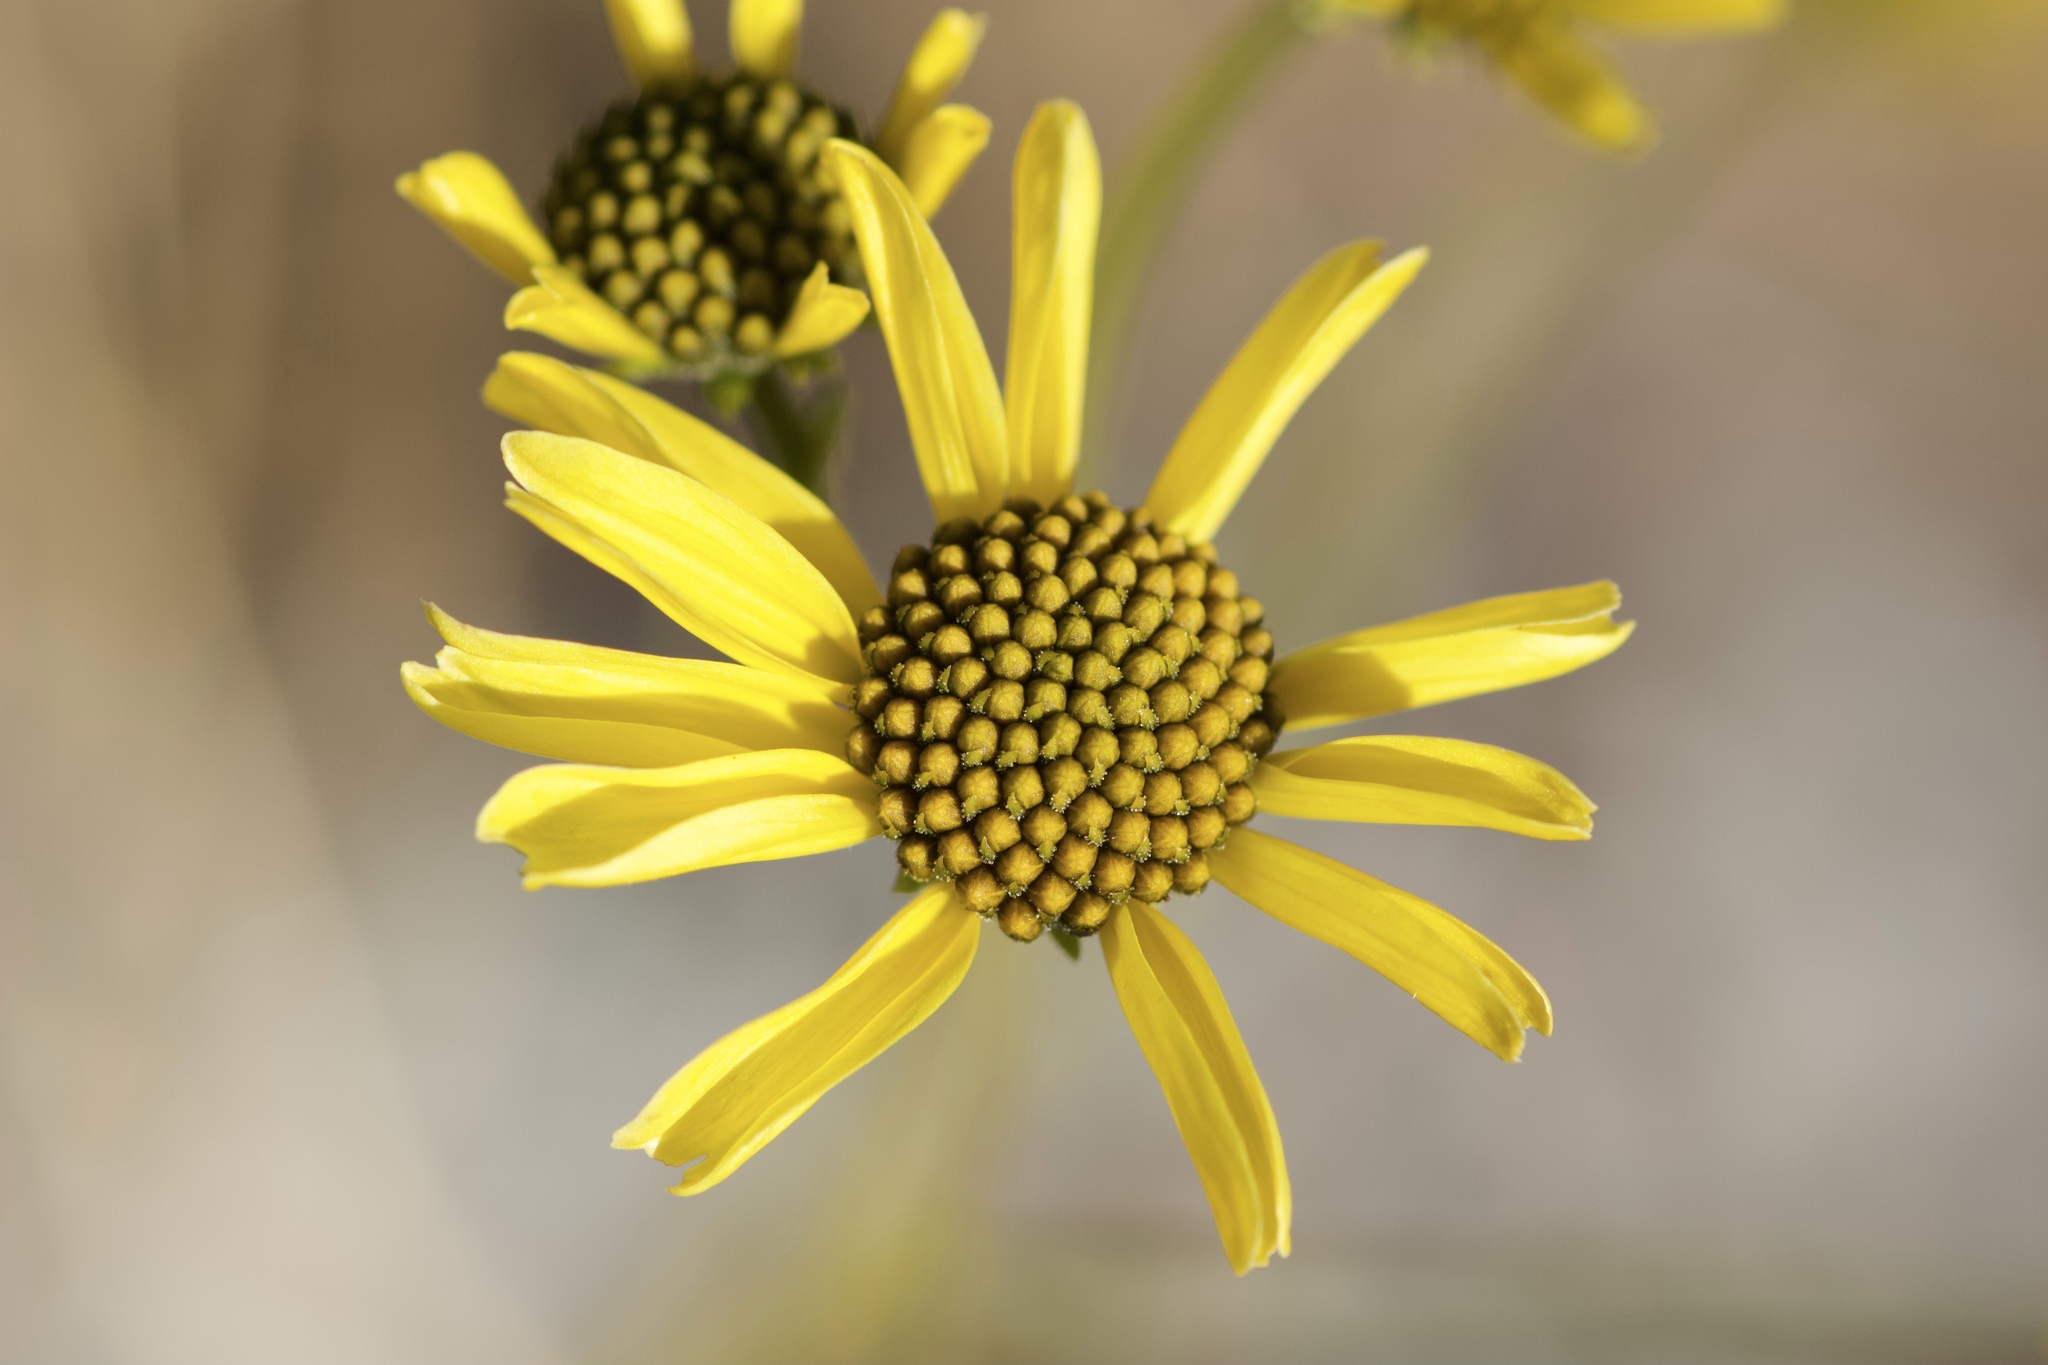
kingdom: Plantae
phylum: Tracheophyta
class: Magnoliopsida
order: Asterales
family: Asteraceae
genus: Encelia
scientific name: Encelia farinosa
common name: Brittlebush
